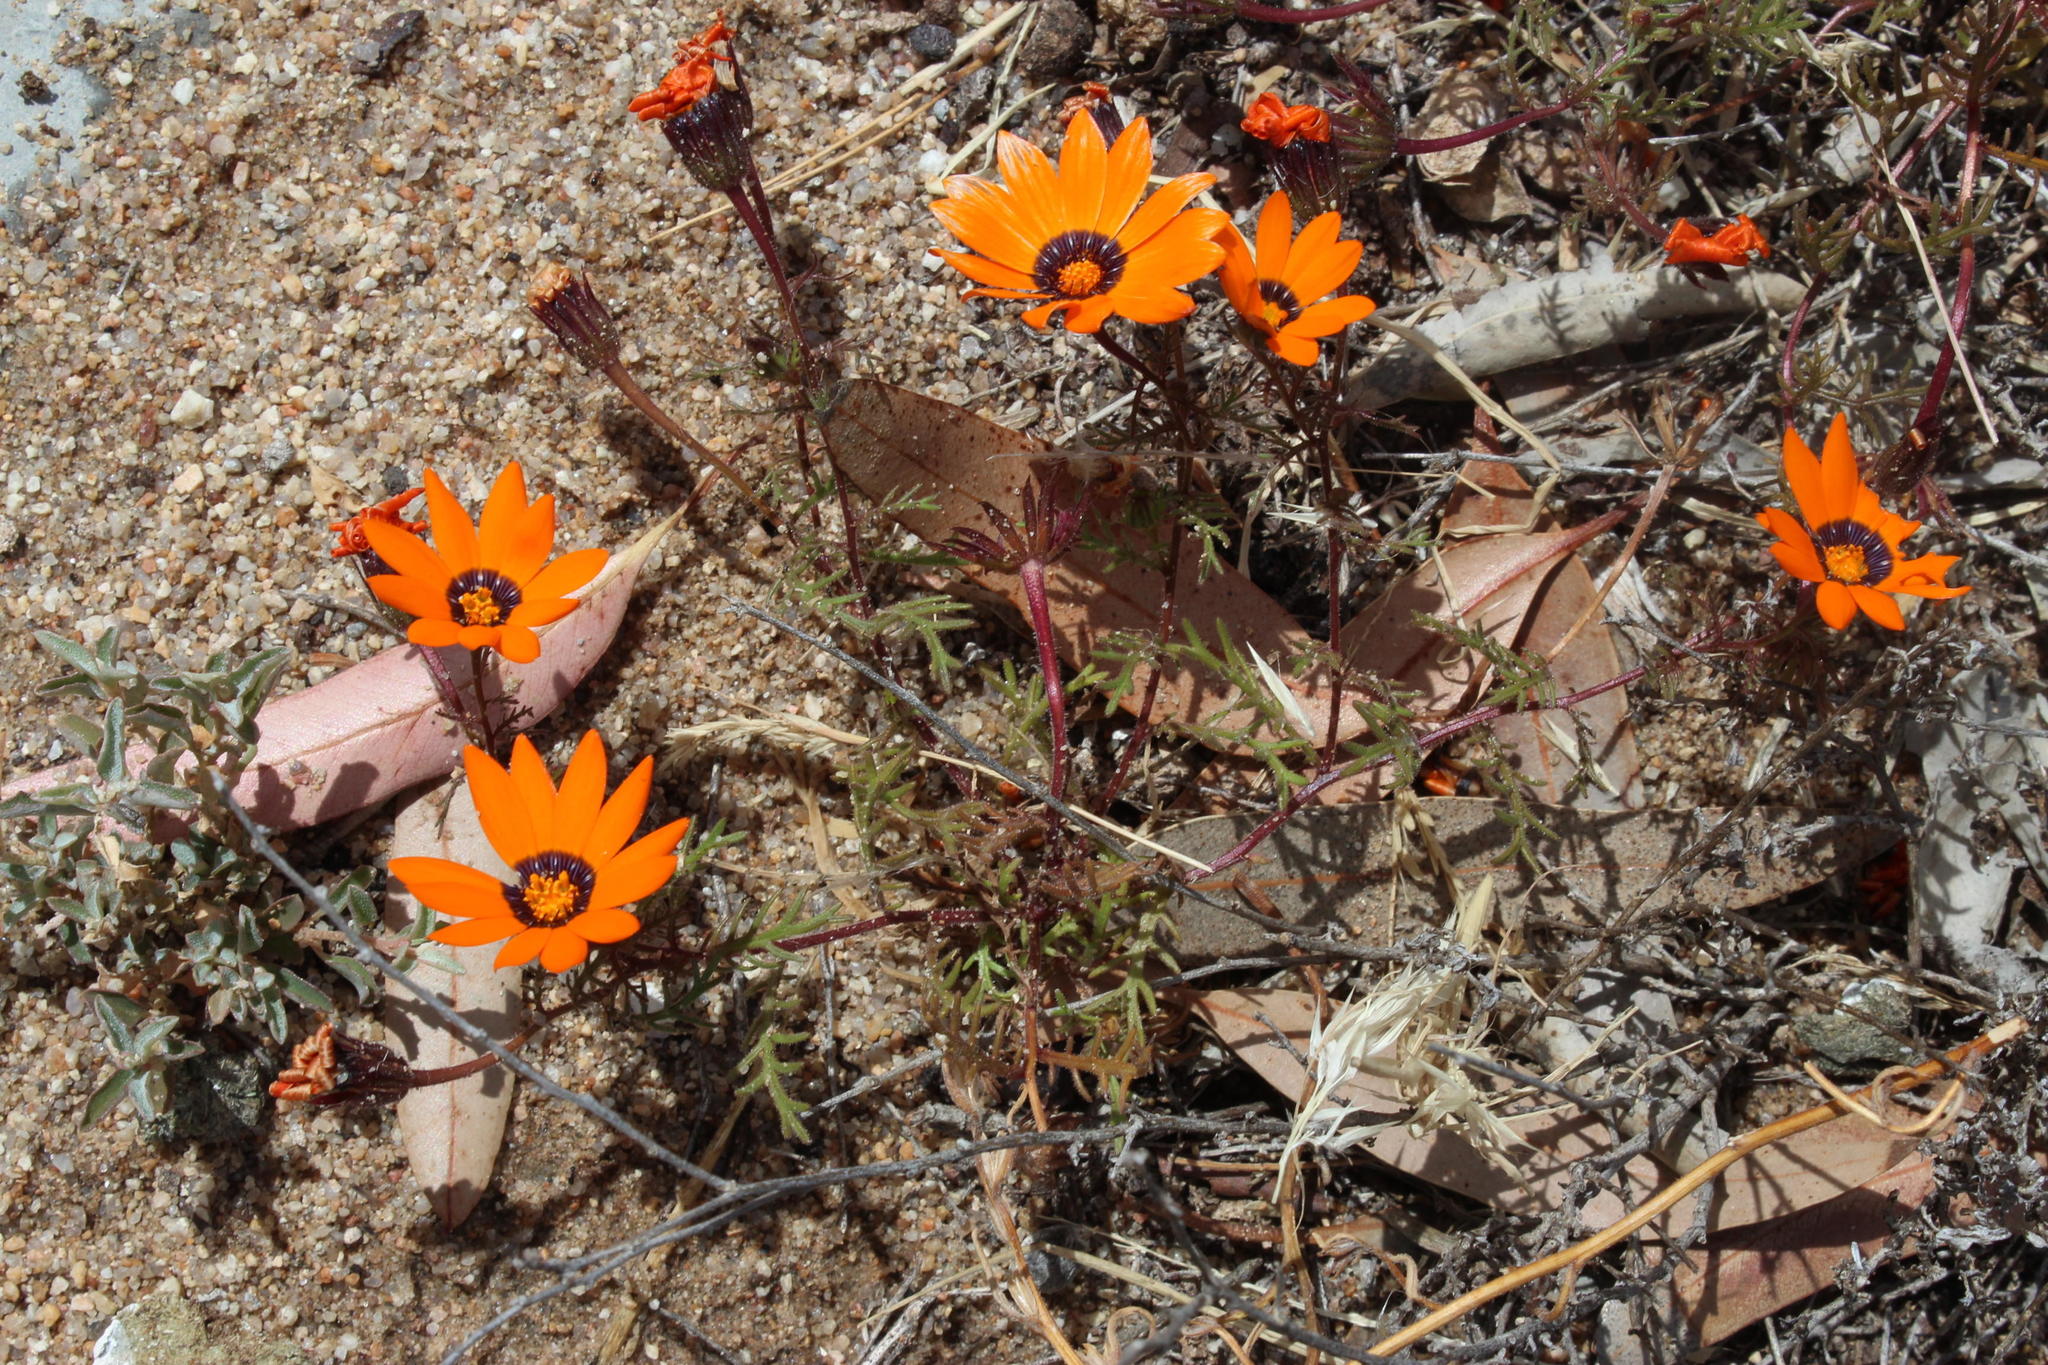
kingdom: Plantae
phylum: Tracheophyta
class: Magnoliopsida
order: Asterales
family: Asteraceae
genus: Dimorphotheca
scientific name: Dimorphotheca pinnata
